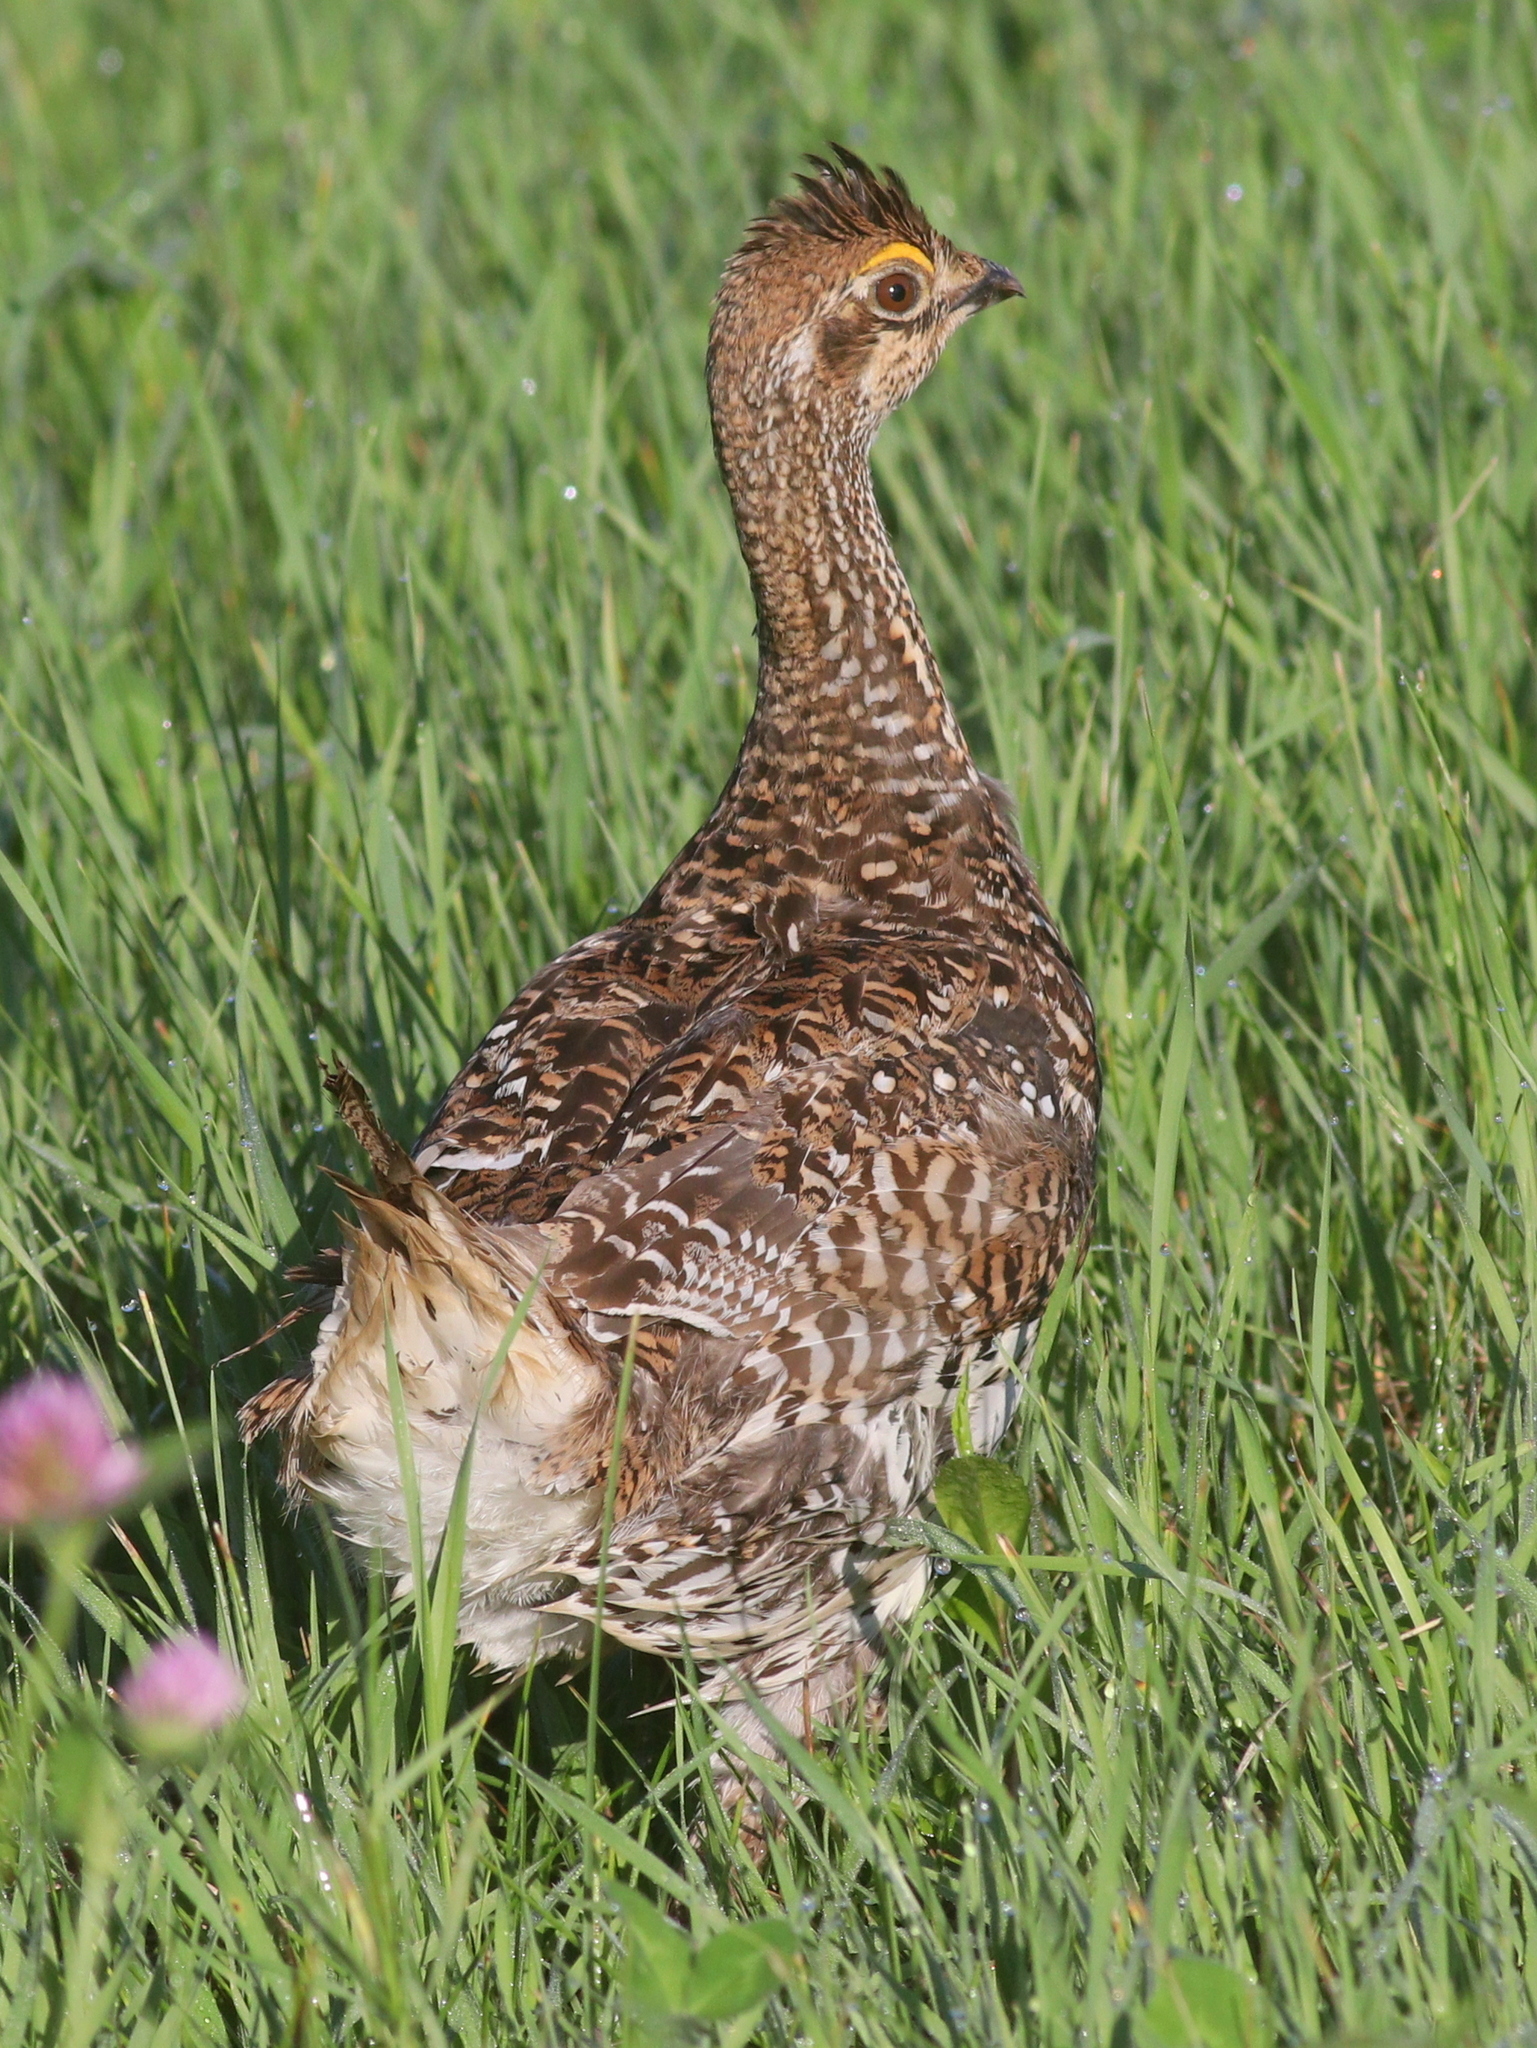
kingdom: Animalia
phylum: Chordata
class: Aves
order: Galliformes
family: Phasianidae
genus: Tympanuchus
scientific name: Tympanuchus phasianellus
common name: Sharp-tailed grouse
